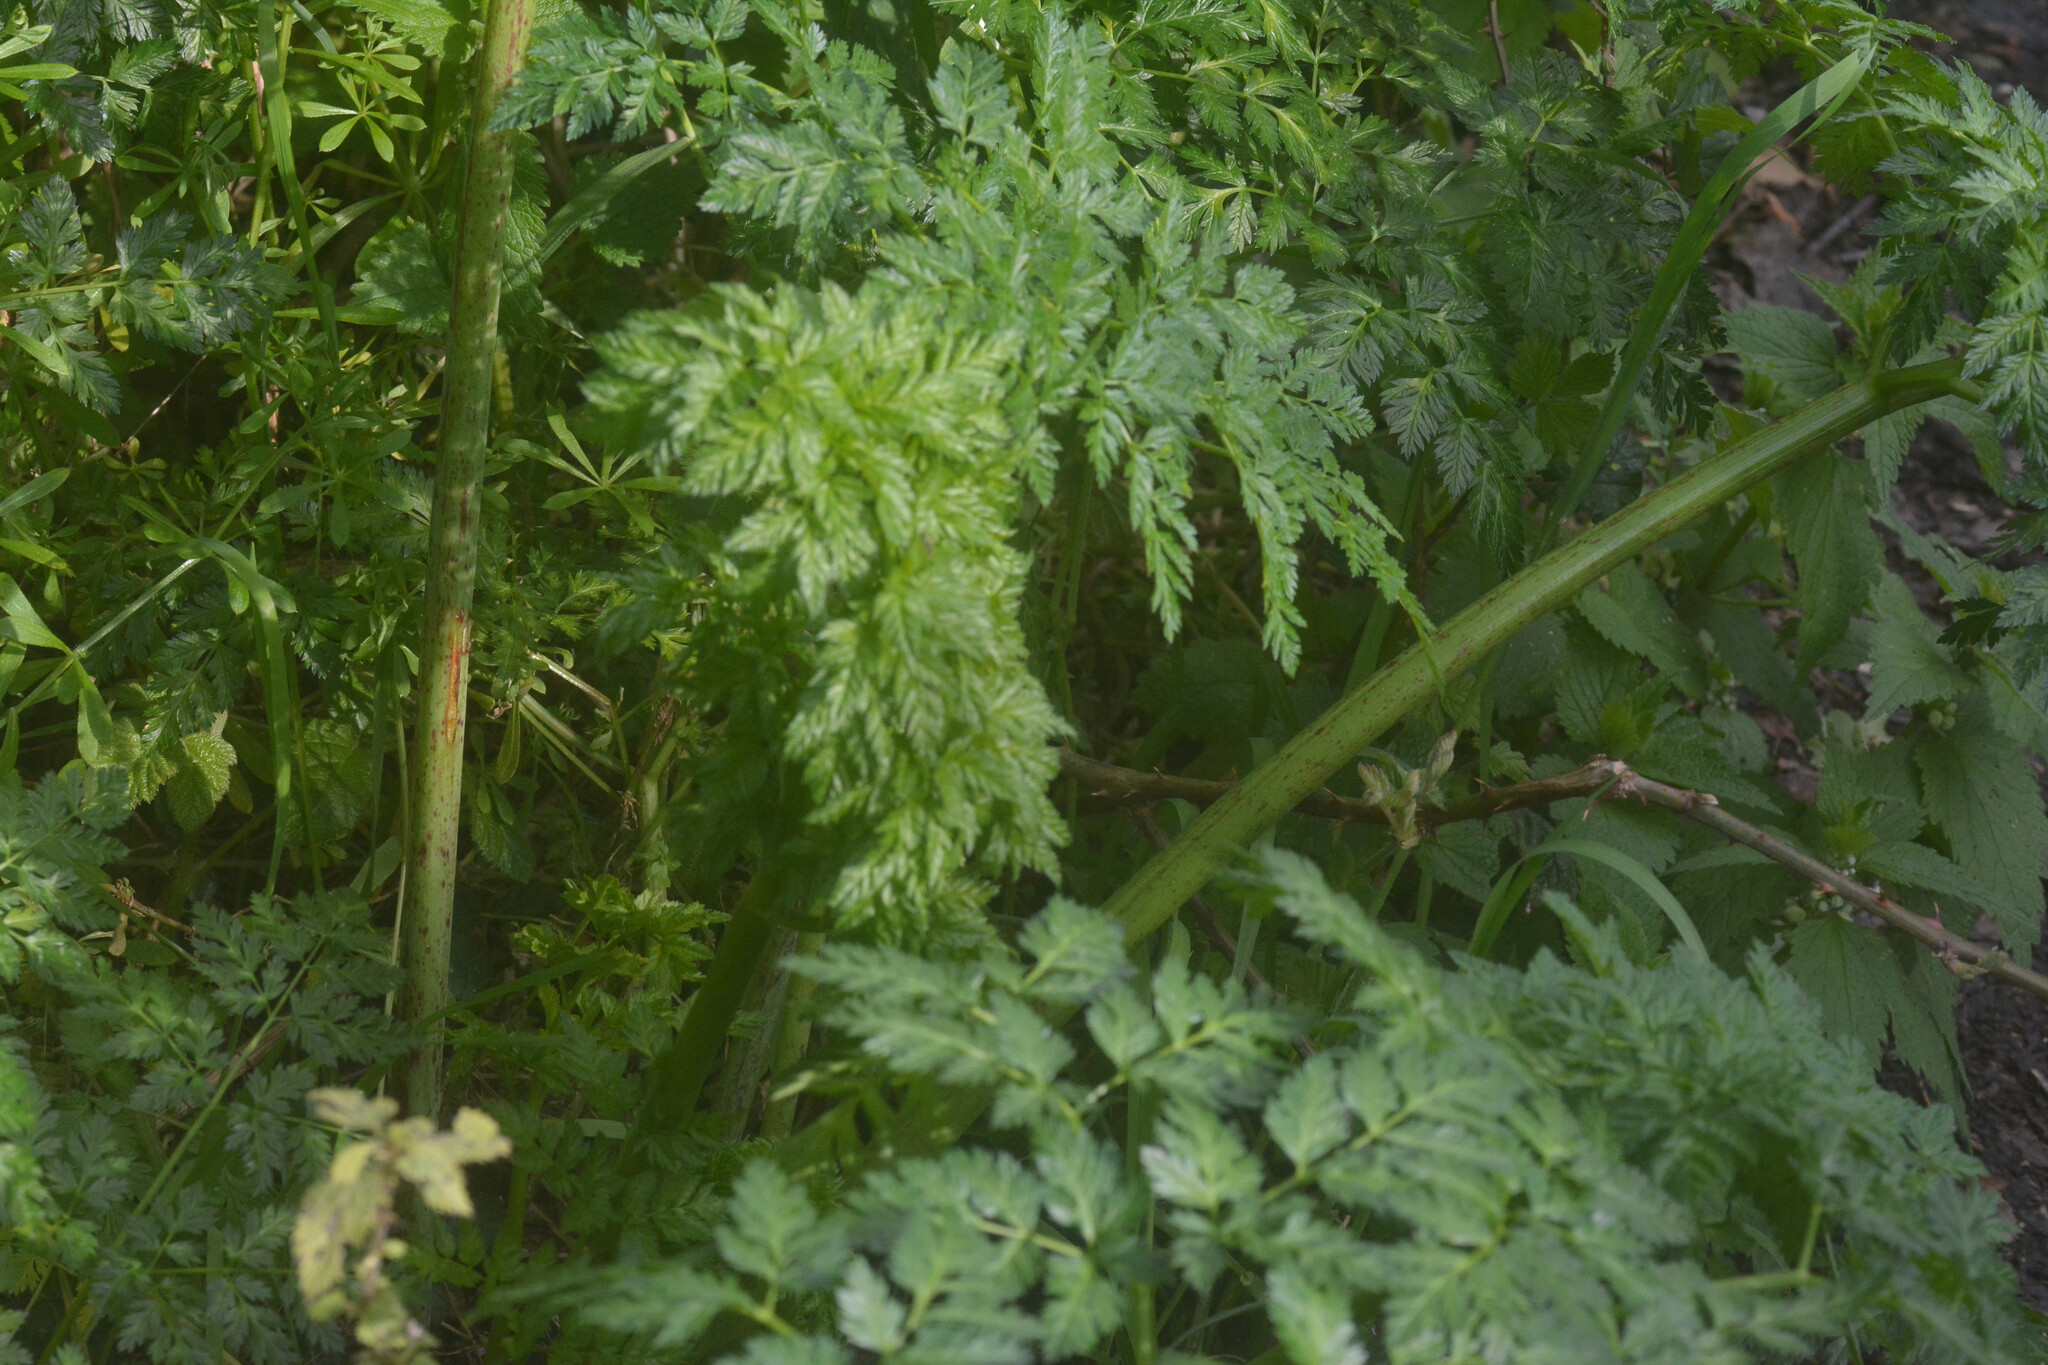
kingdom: Plantae
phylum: Tracheophyta
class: Magnoliopsida
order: Apiales
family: Apiaceae
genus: Conium
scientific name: Conium maculatum
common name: Hemlock
